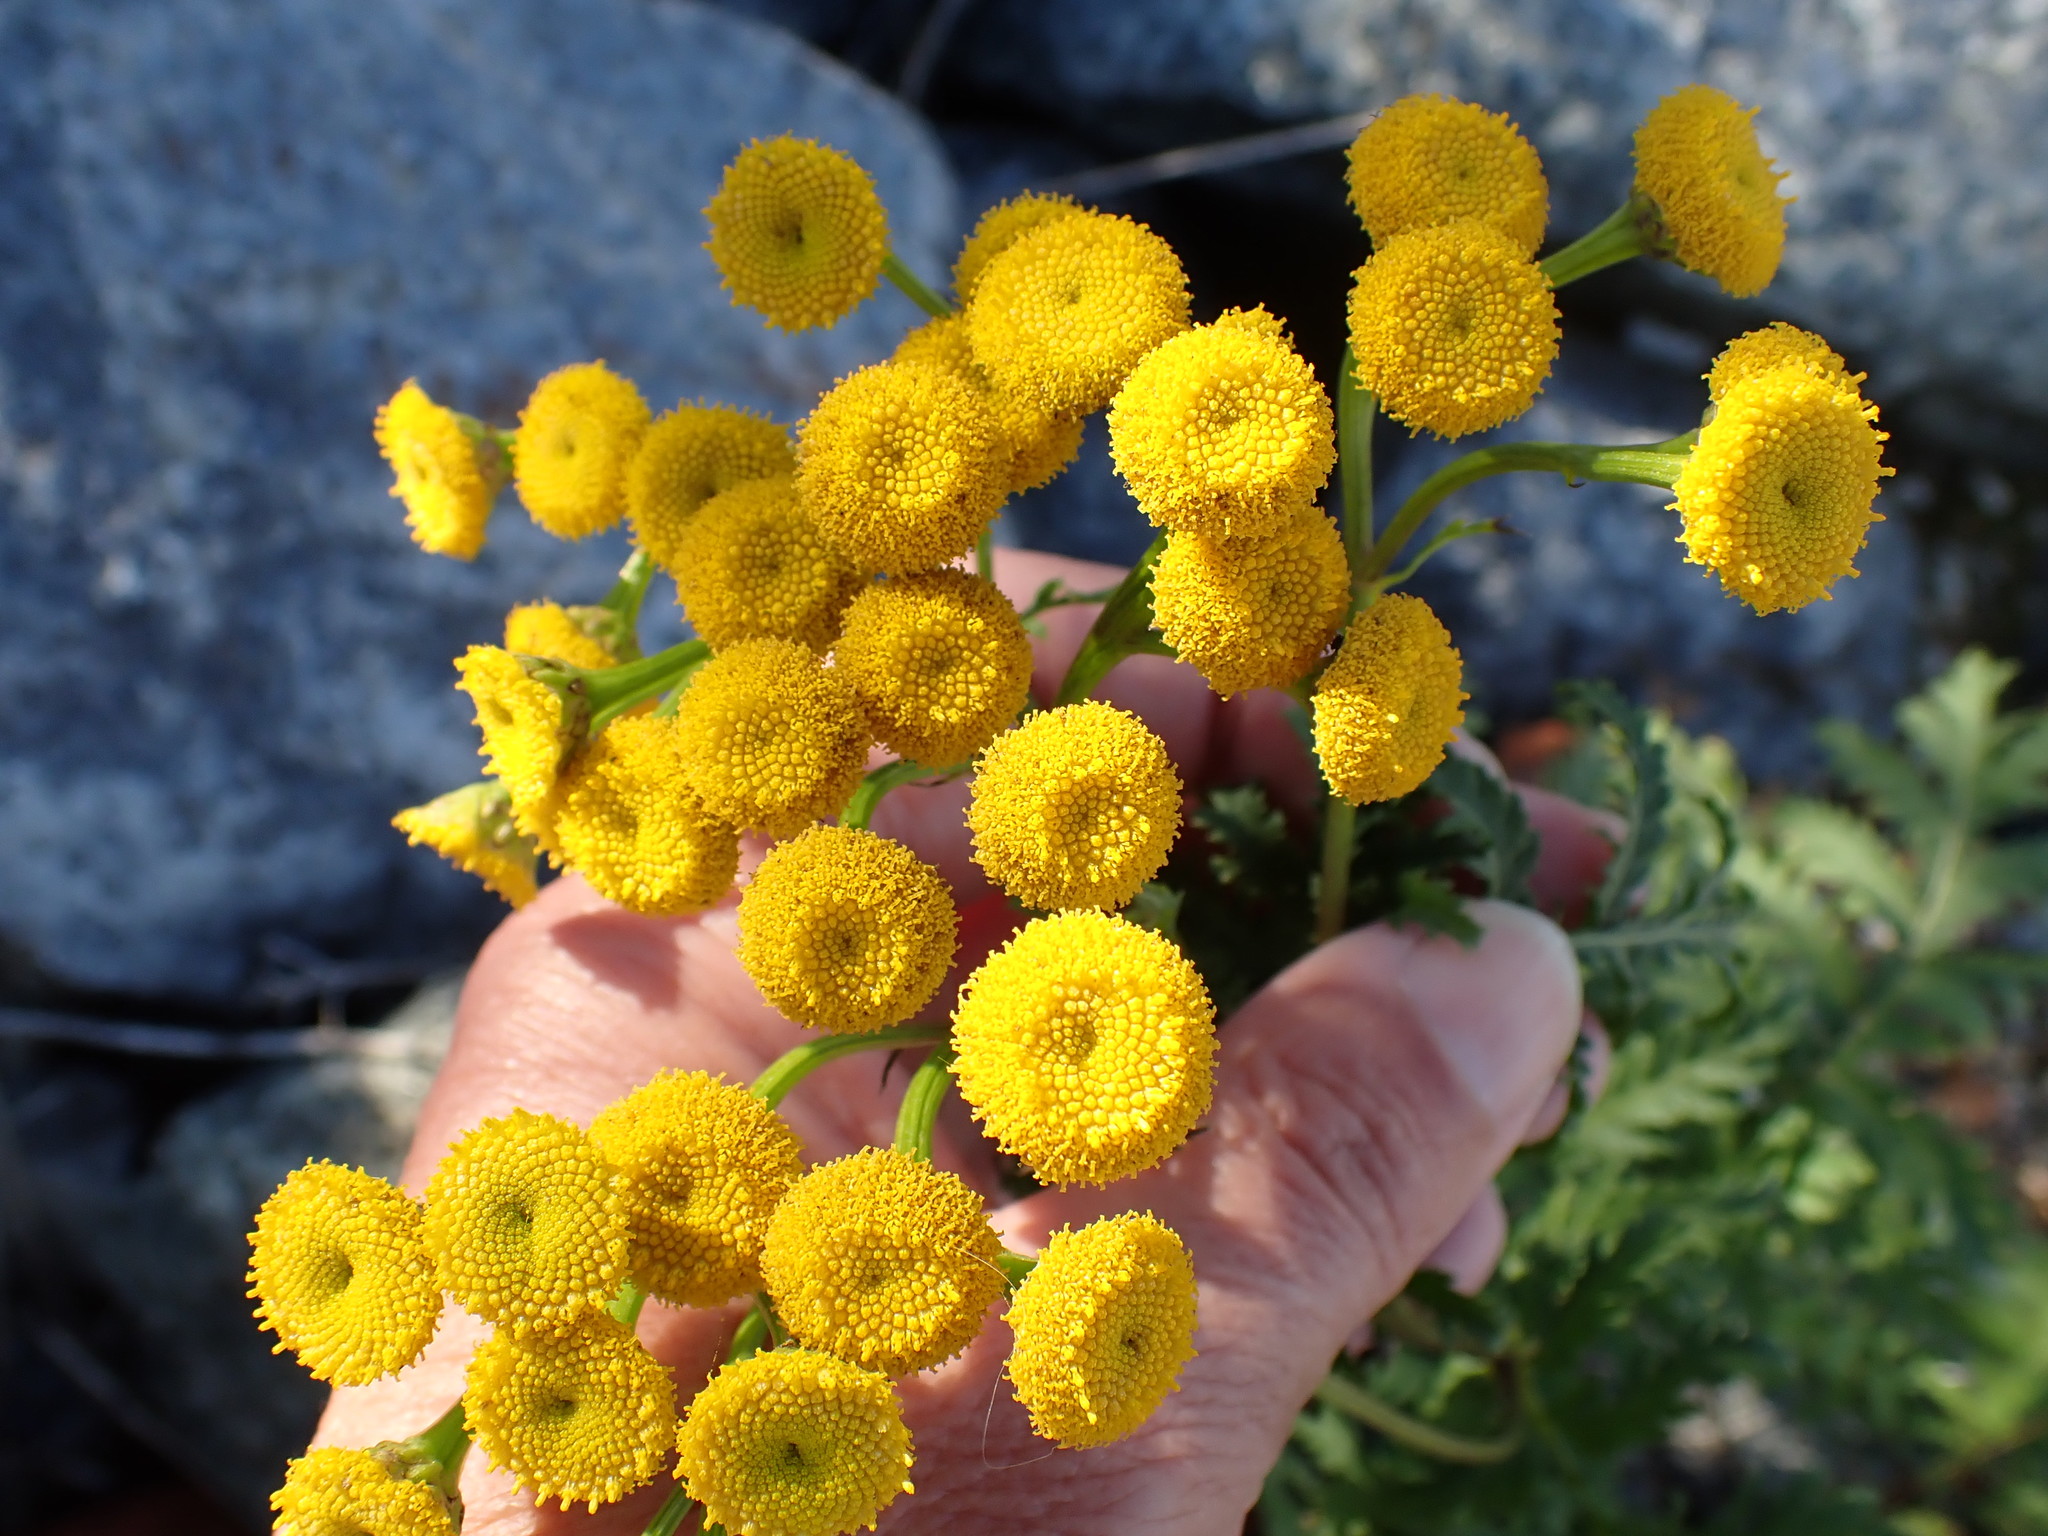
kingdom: Plantae
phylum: Tracheophyta
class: Magnoliopsida
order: Asterales
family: Asteraceae
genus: Tanacetum
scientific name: Tanacetum vulgare
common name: Common tansy
